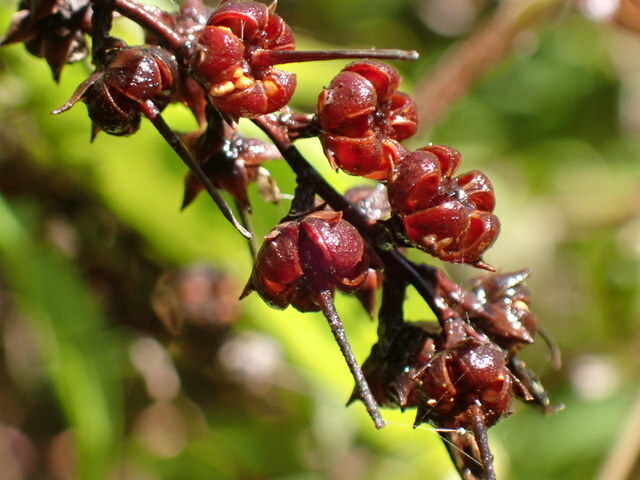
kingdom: Plantae
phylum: Tracheophyta
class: Magnoliopsida
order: Ericales
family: Ericaceae
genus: Eubotrys
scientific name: Eubotrys racemosa
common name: Fetterbush
